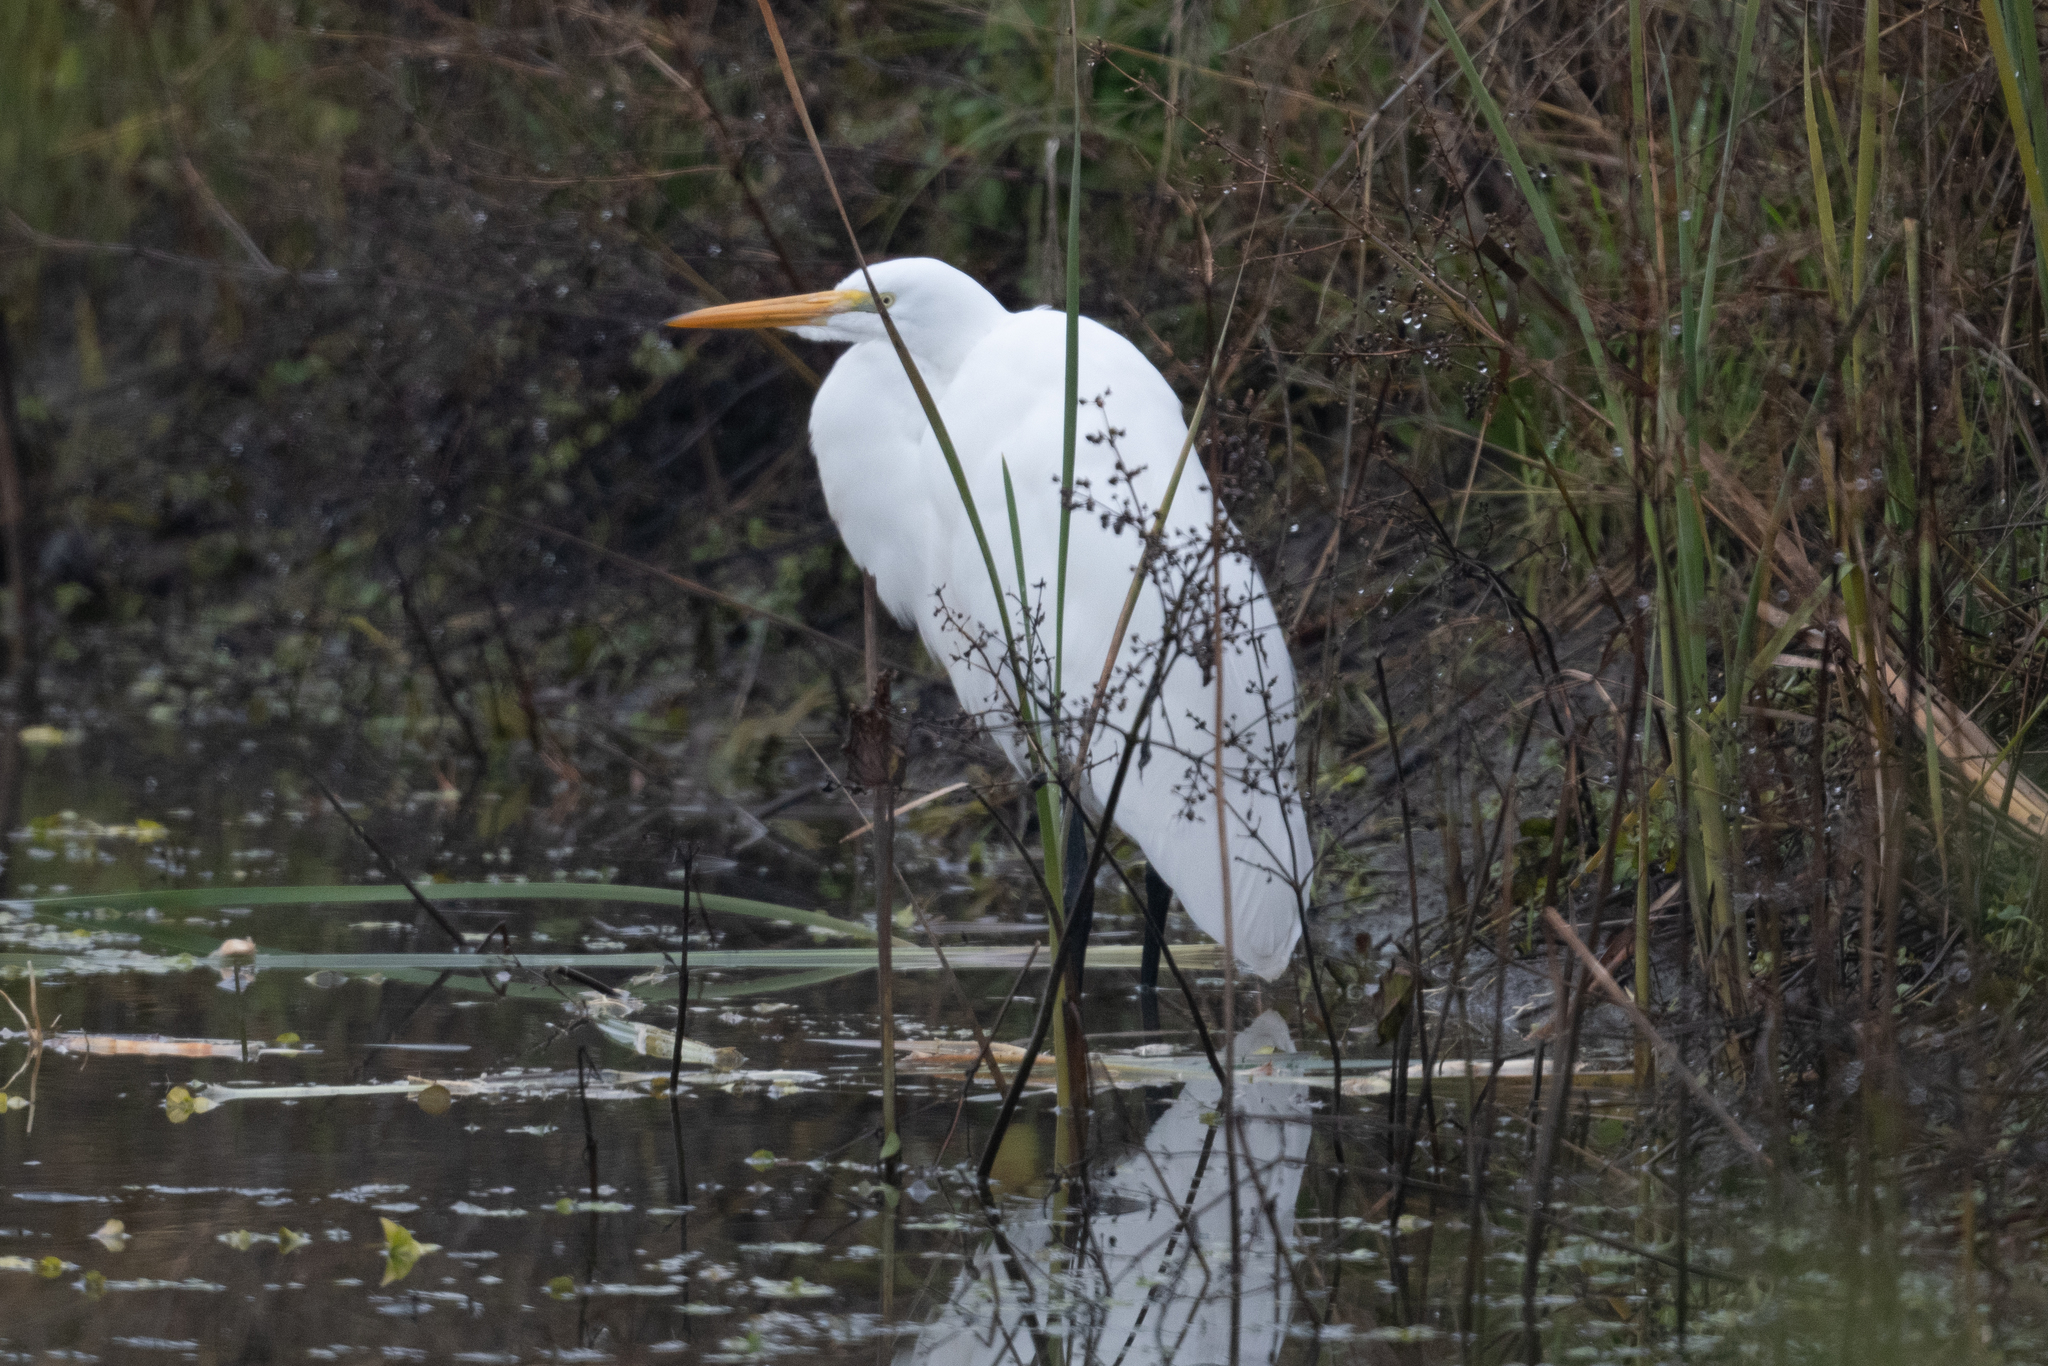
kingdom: Animalia
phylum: Chordata
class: Aves
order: Pelecaniformes
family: Ardeidae
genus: Ardea
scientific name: Ardea alba
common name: Great egret
